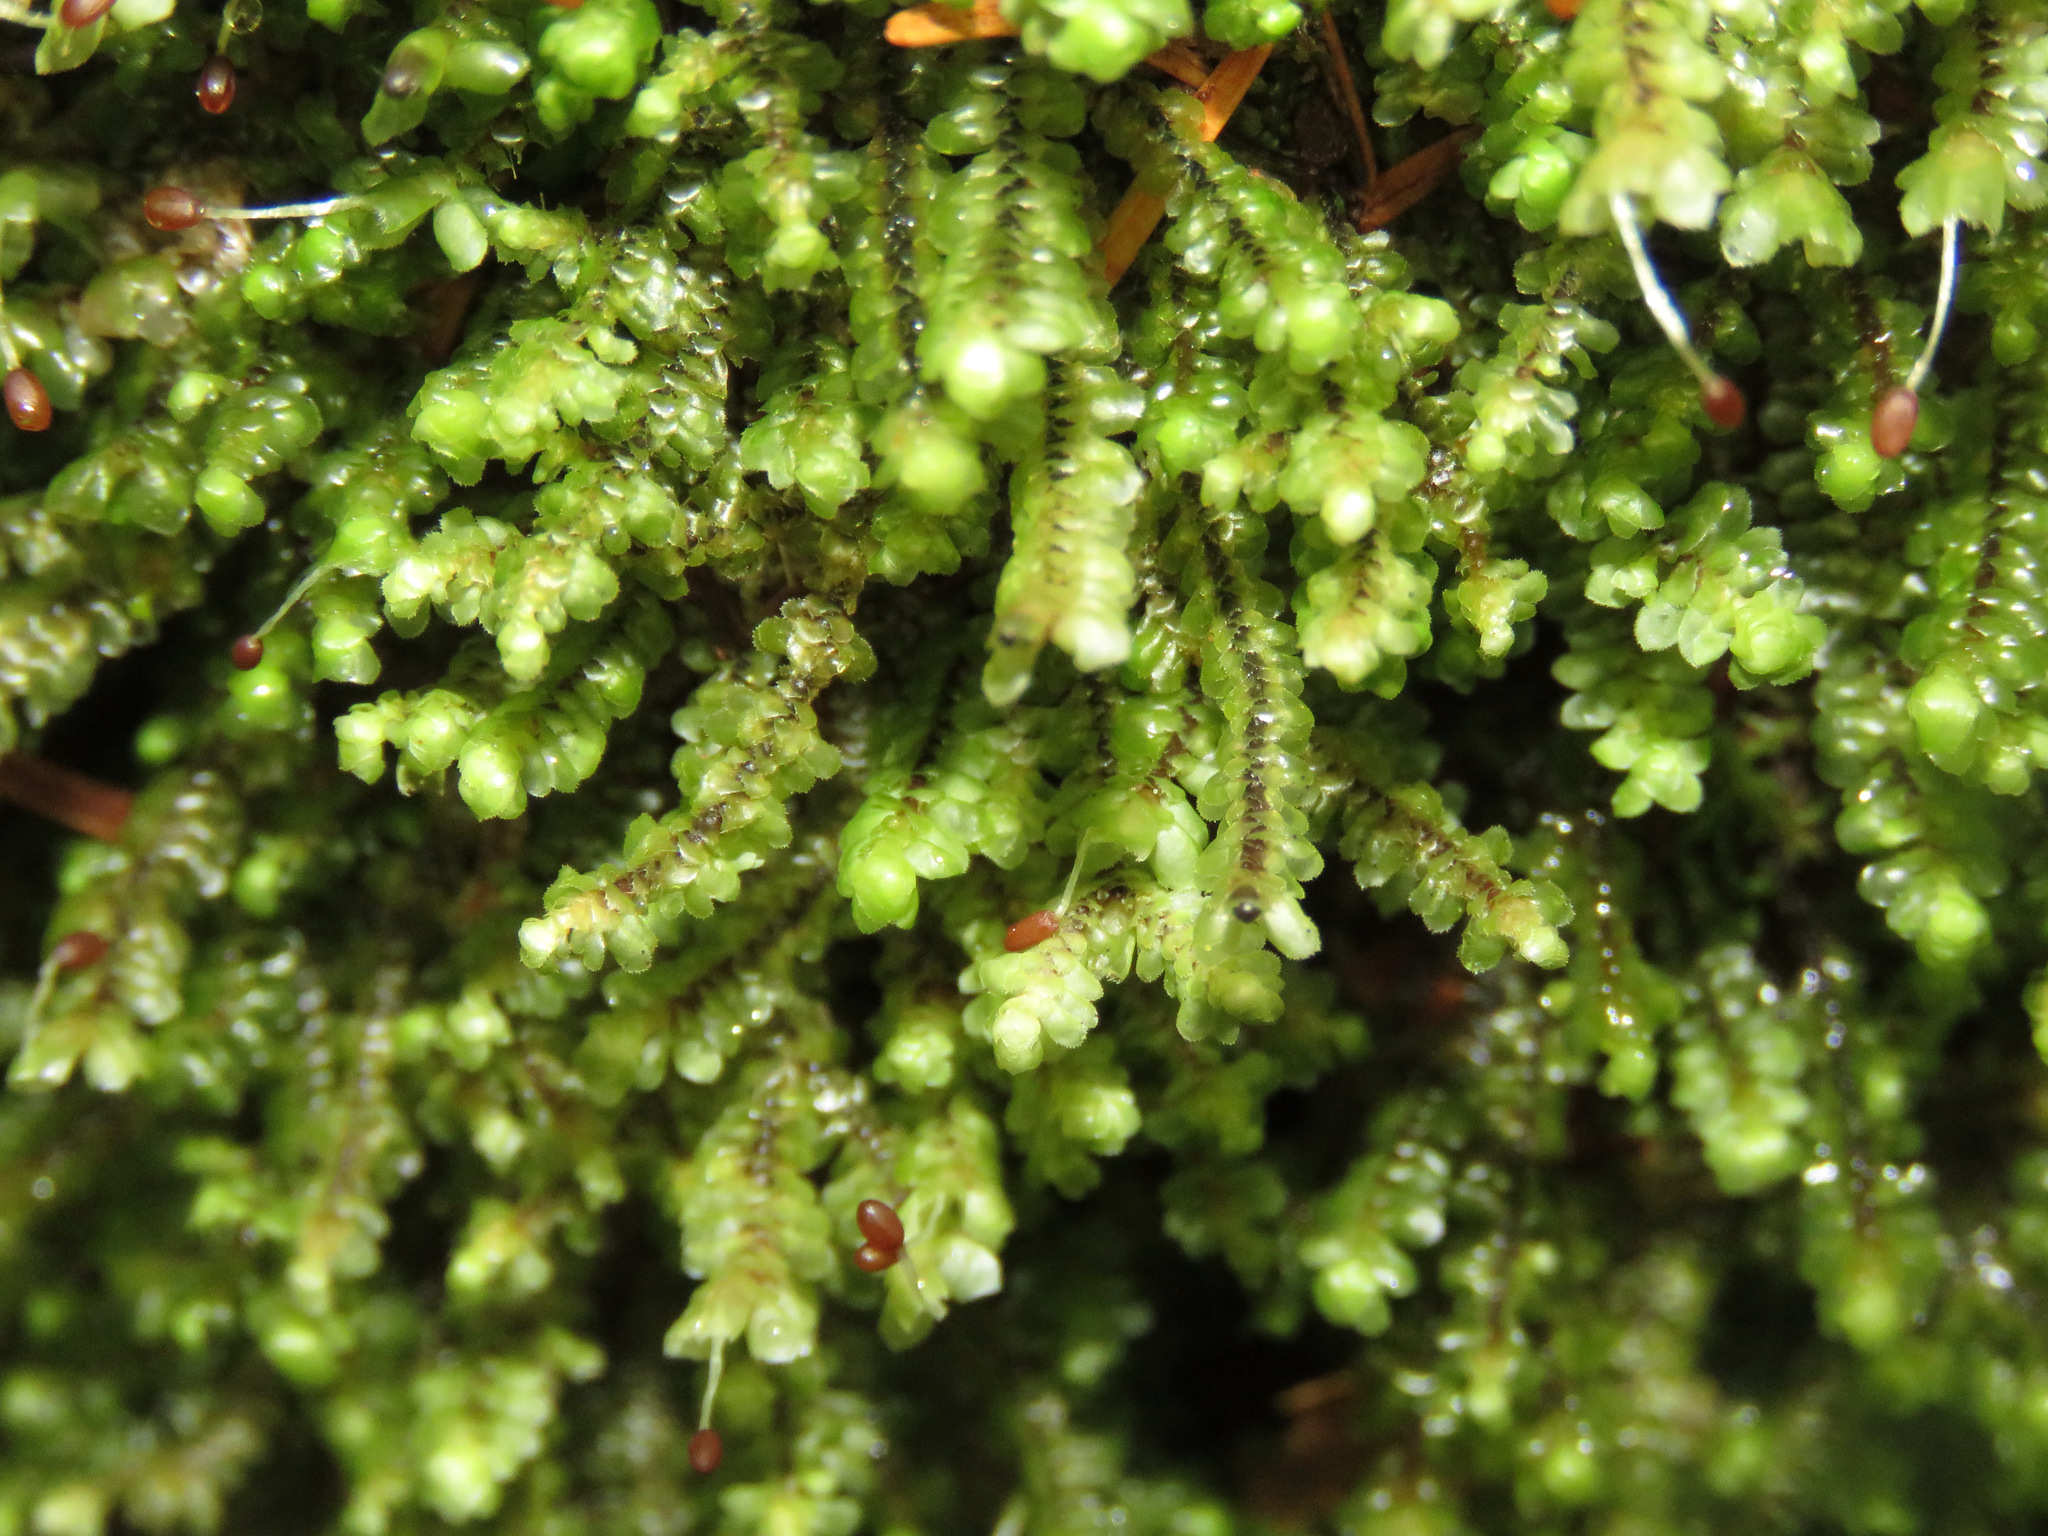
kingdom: Plantae
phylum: Marchantiophyta
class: Jungermanniopsida
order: Jungermanniales
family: Scapaniaceae
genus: Scapania
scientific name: Scapania bolanderi
